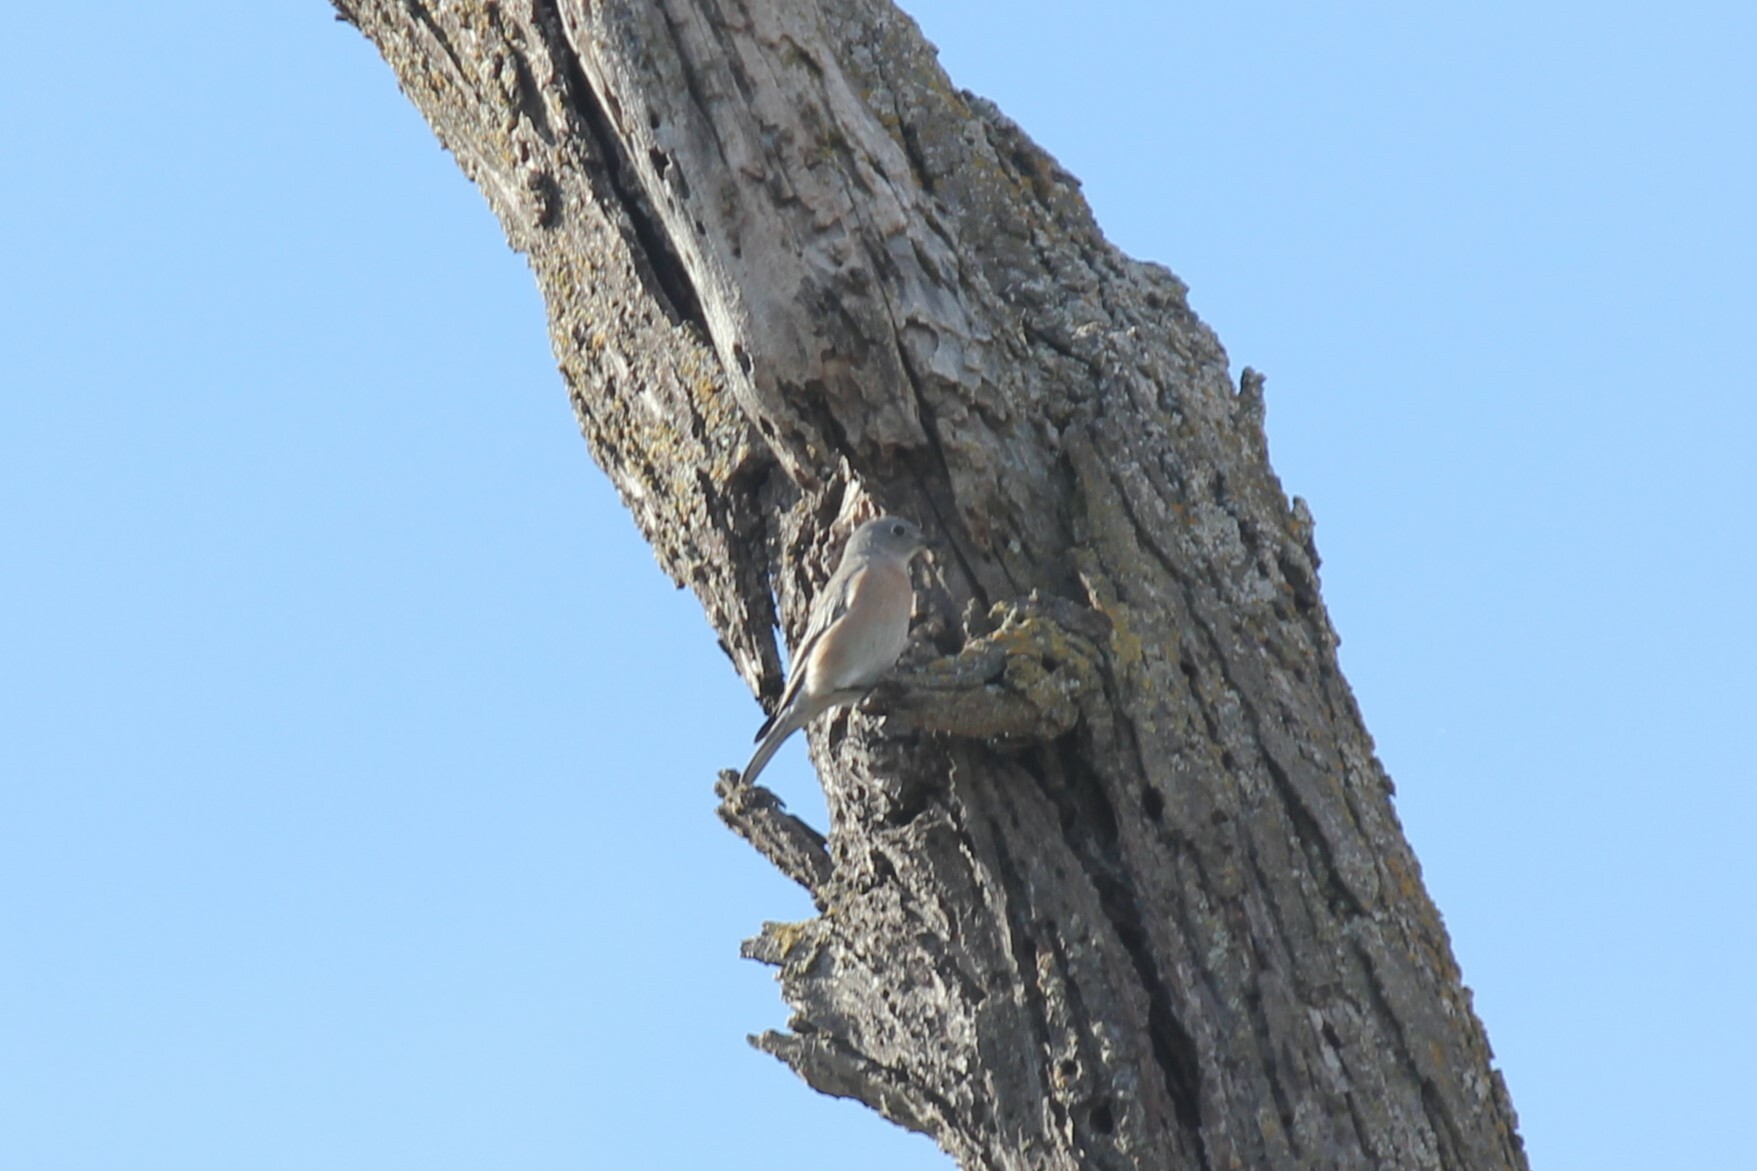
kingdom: Animalia
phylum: Chordata
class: Aves
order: Passeriformes
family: Turdidae
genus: Sialia
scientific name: Sialia mexicana
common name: Western bluebird
